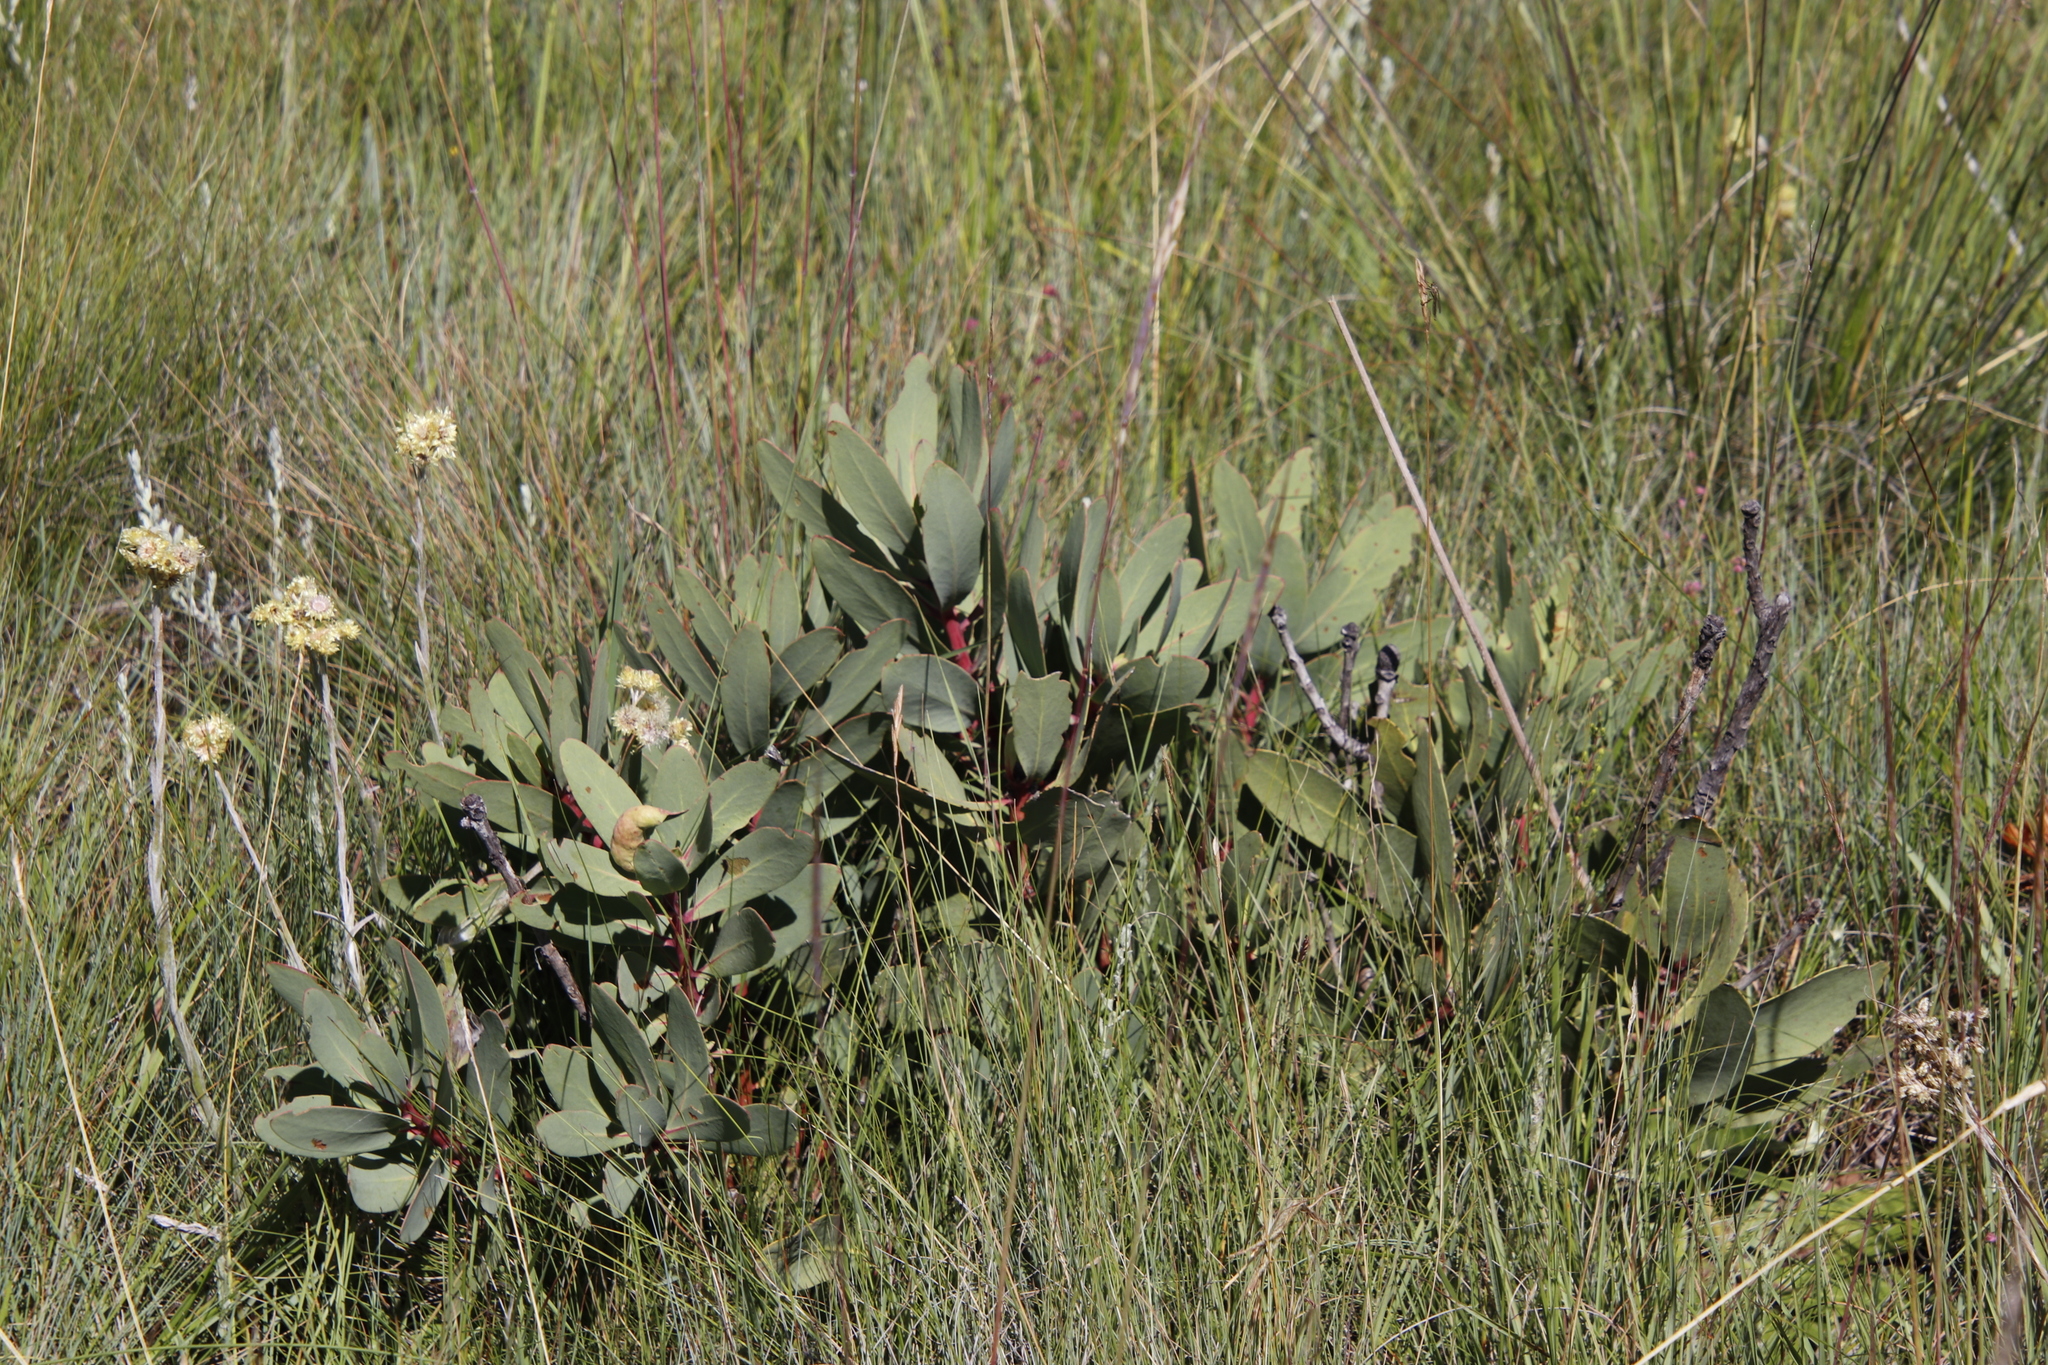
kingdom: Plantae
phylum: Tracheophyta
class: Magnoliopsida
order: Proteales
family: Proteaceae
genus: Protea
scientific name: Protea caffra
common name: Common sugarbush
